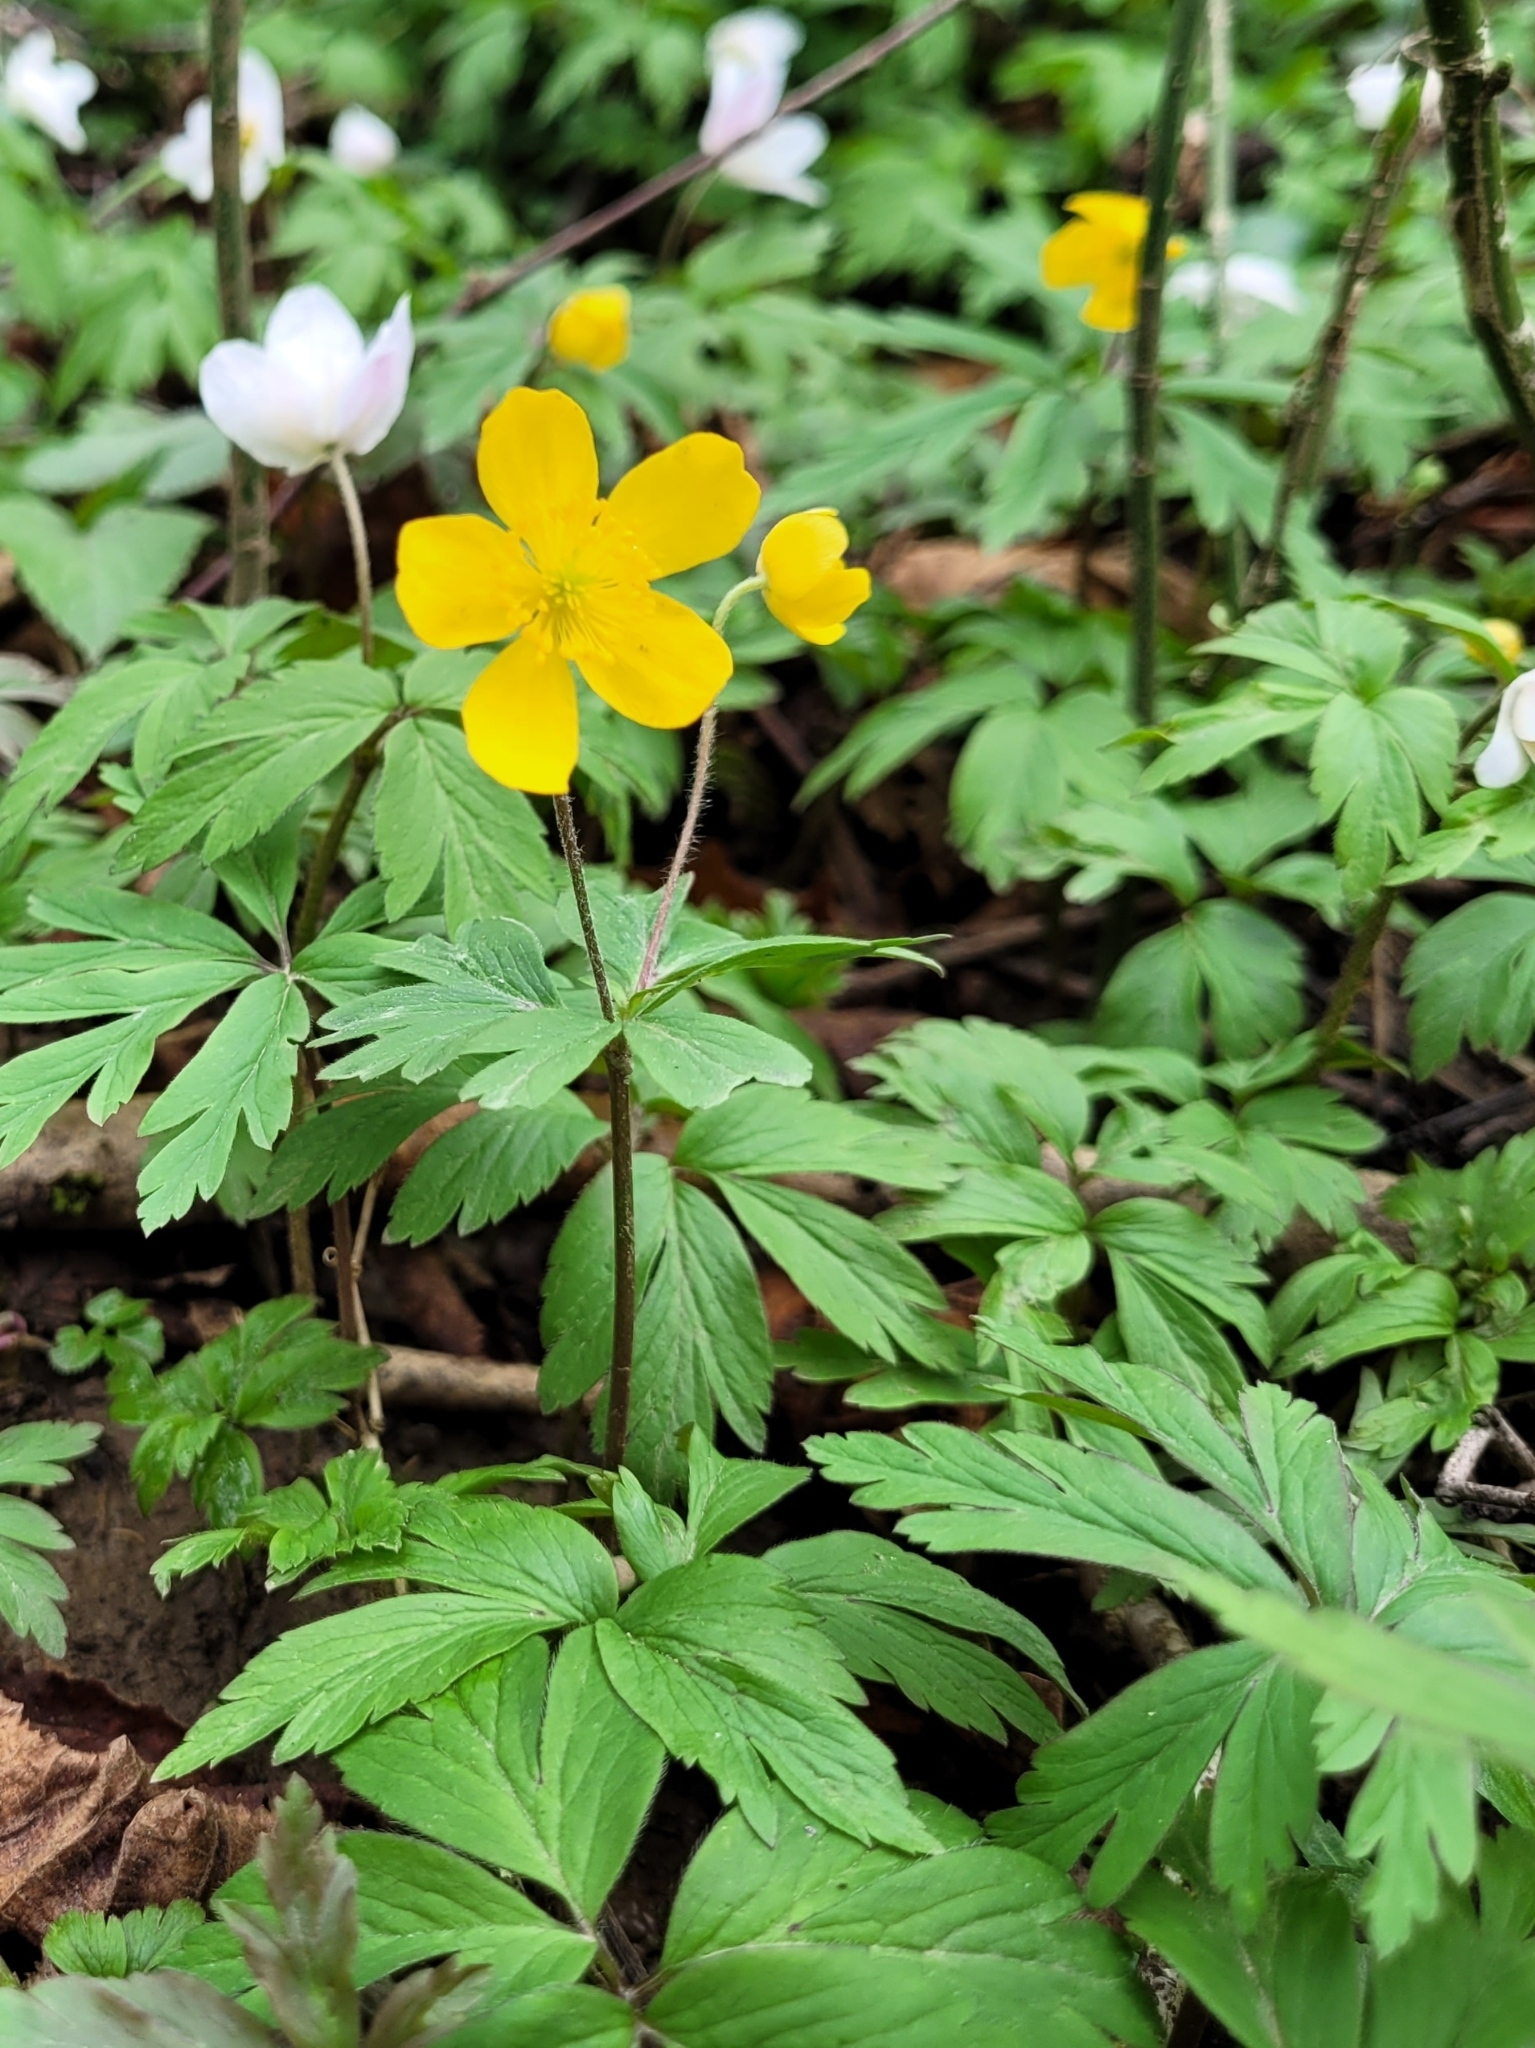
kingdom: Plantae
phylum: Tracheophyta
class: Magnoliopsida
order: Ranunculales
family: Ranunculaceae
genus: Anemone
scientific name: Anemone ranunculoides
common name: Yellow anemone
